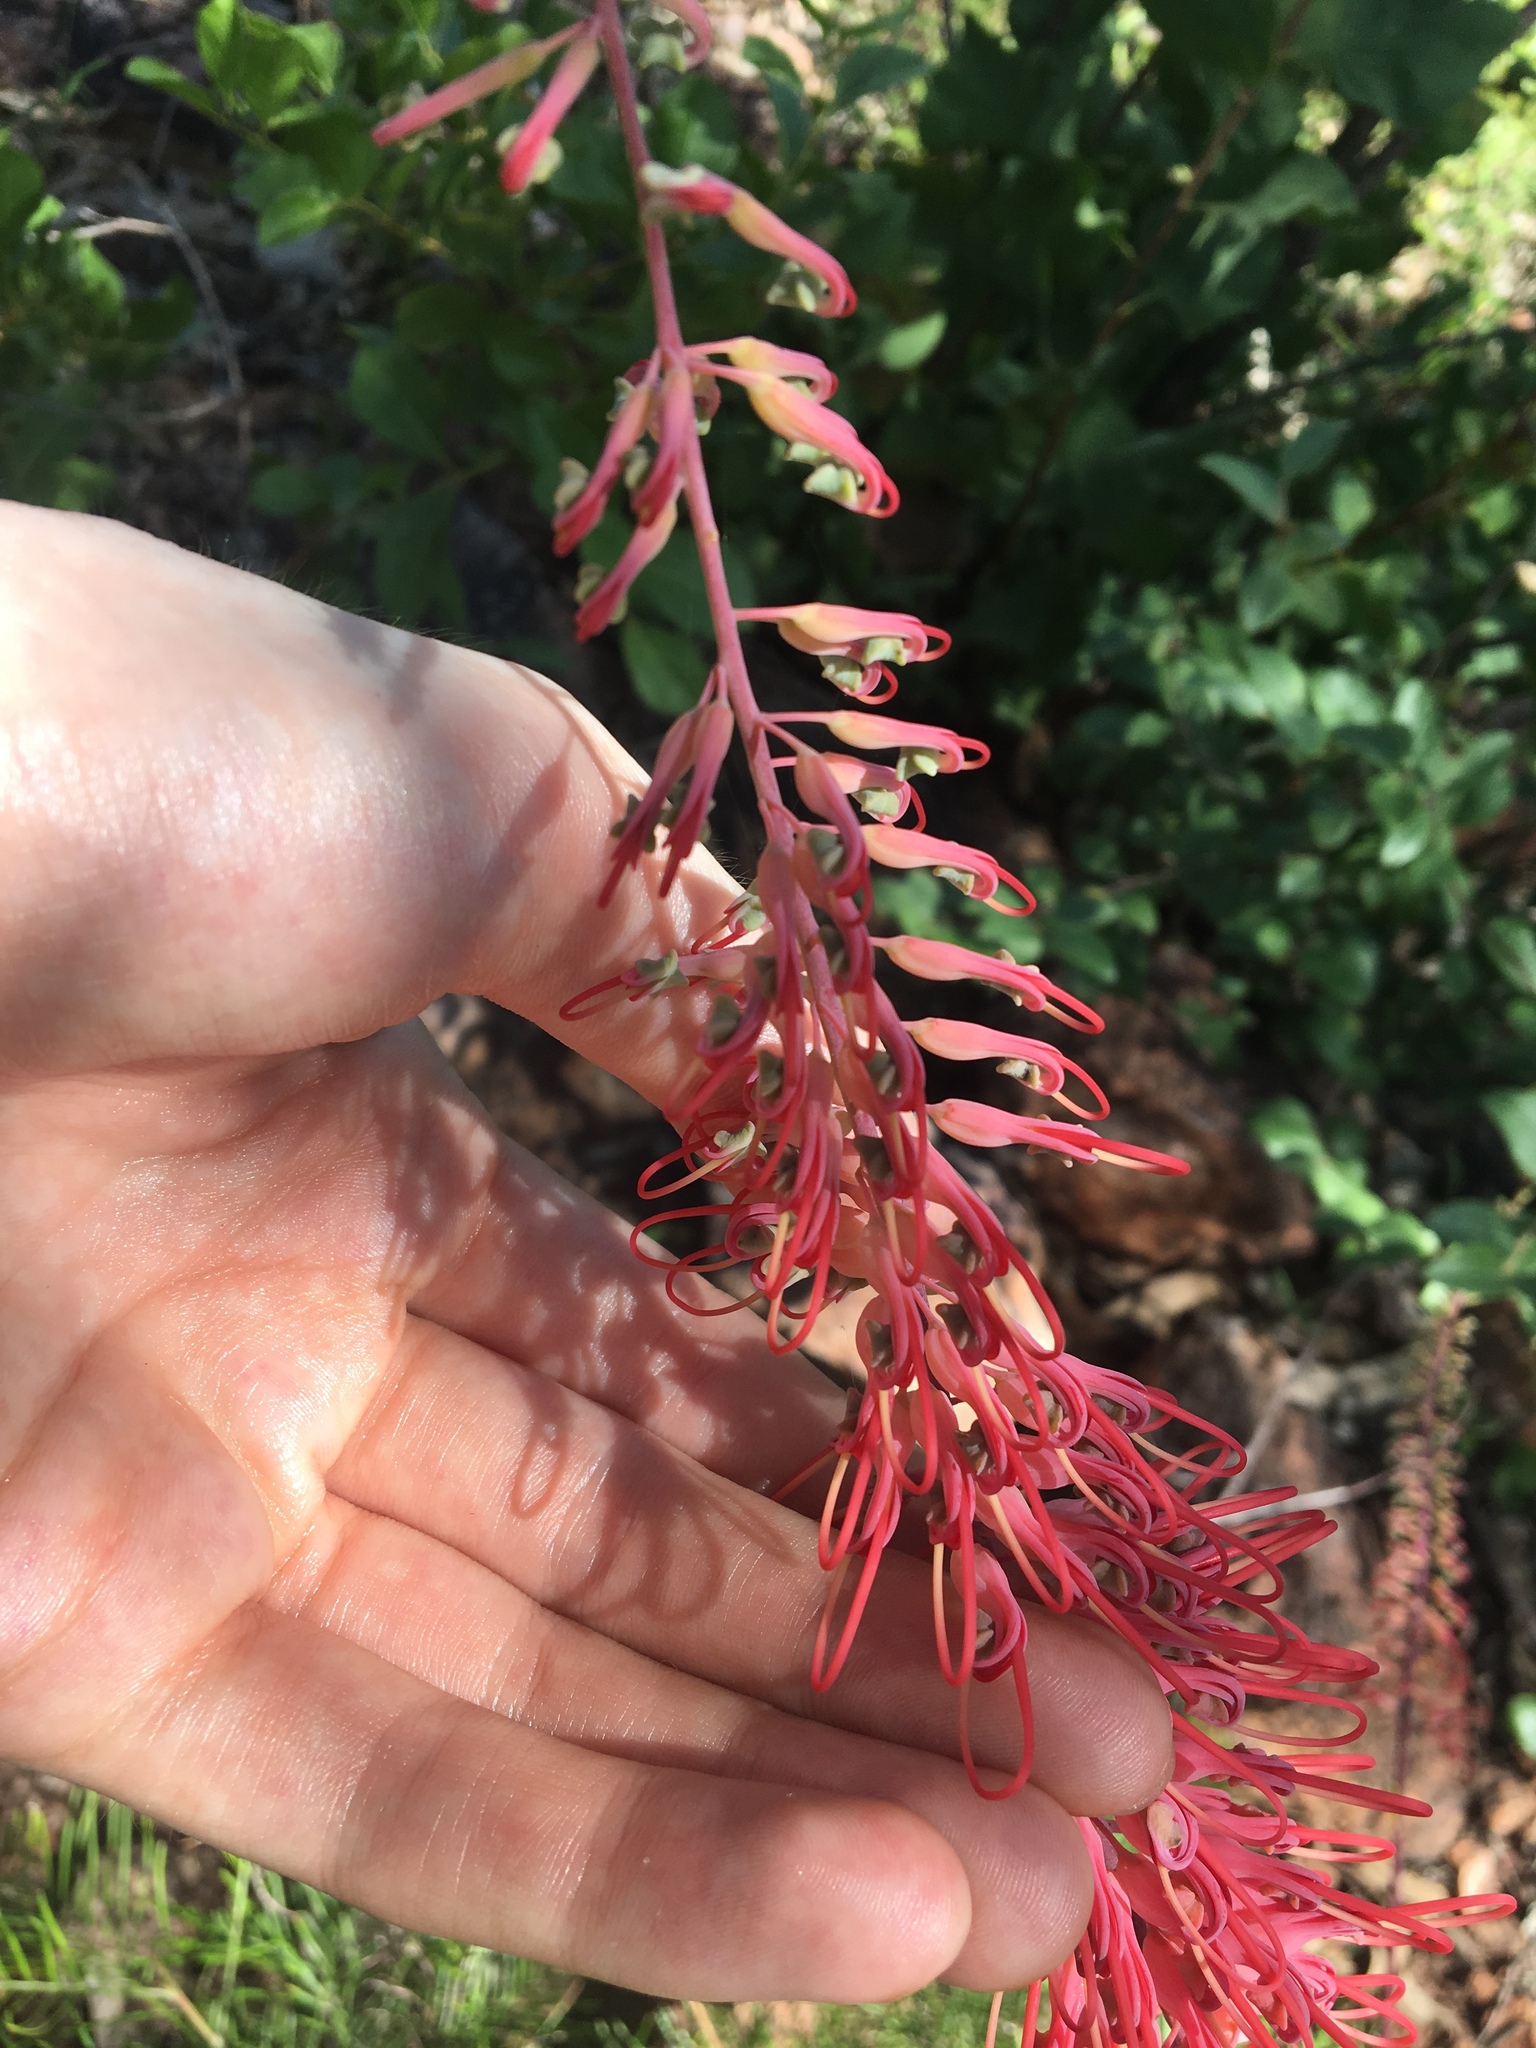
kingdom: Plantae
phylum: Tracheophyta
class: Magnoliopsida
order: Proteales
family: Proteaceae
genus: Grevillea
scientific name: Grevillea dryandri
